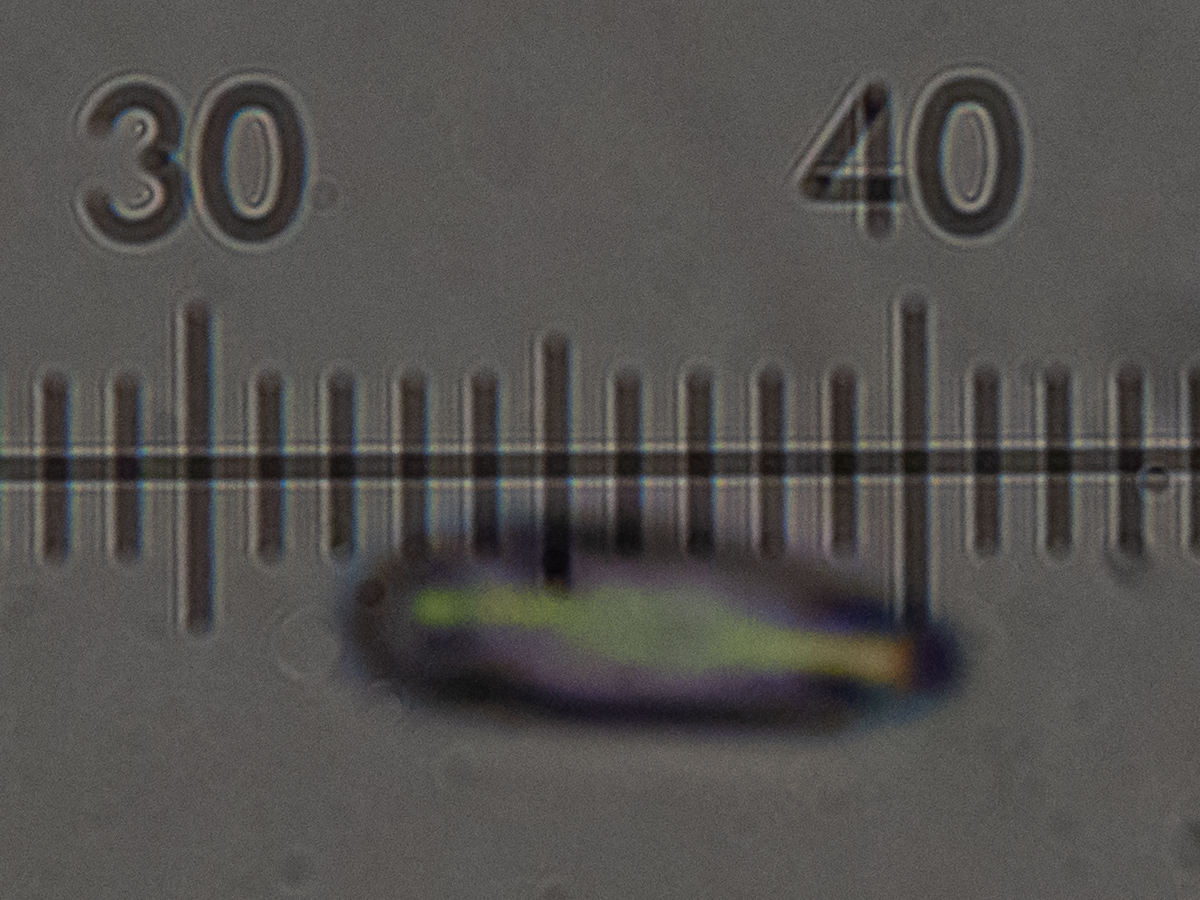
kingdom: Fungi
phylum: Basidiomycota
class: Agaricomycetes
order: Polyporales
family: Fomitopsidaceae
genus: Neoantrodia
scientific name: Neoantrodia serialis
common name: Serried porecrust
